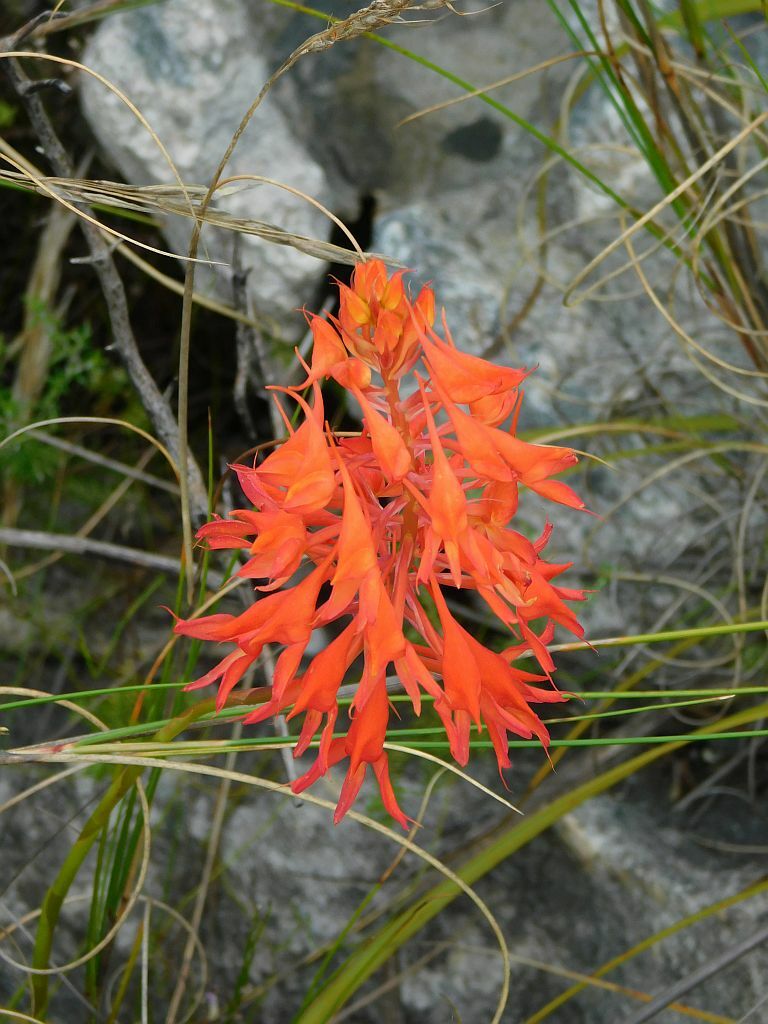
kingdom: Plantae
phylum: Tracheophyta
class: Liliopsida
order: Asparagales
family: Orchidaceae
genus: Disa
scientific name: Disa ferruginea
